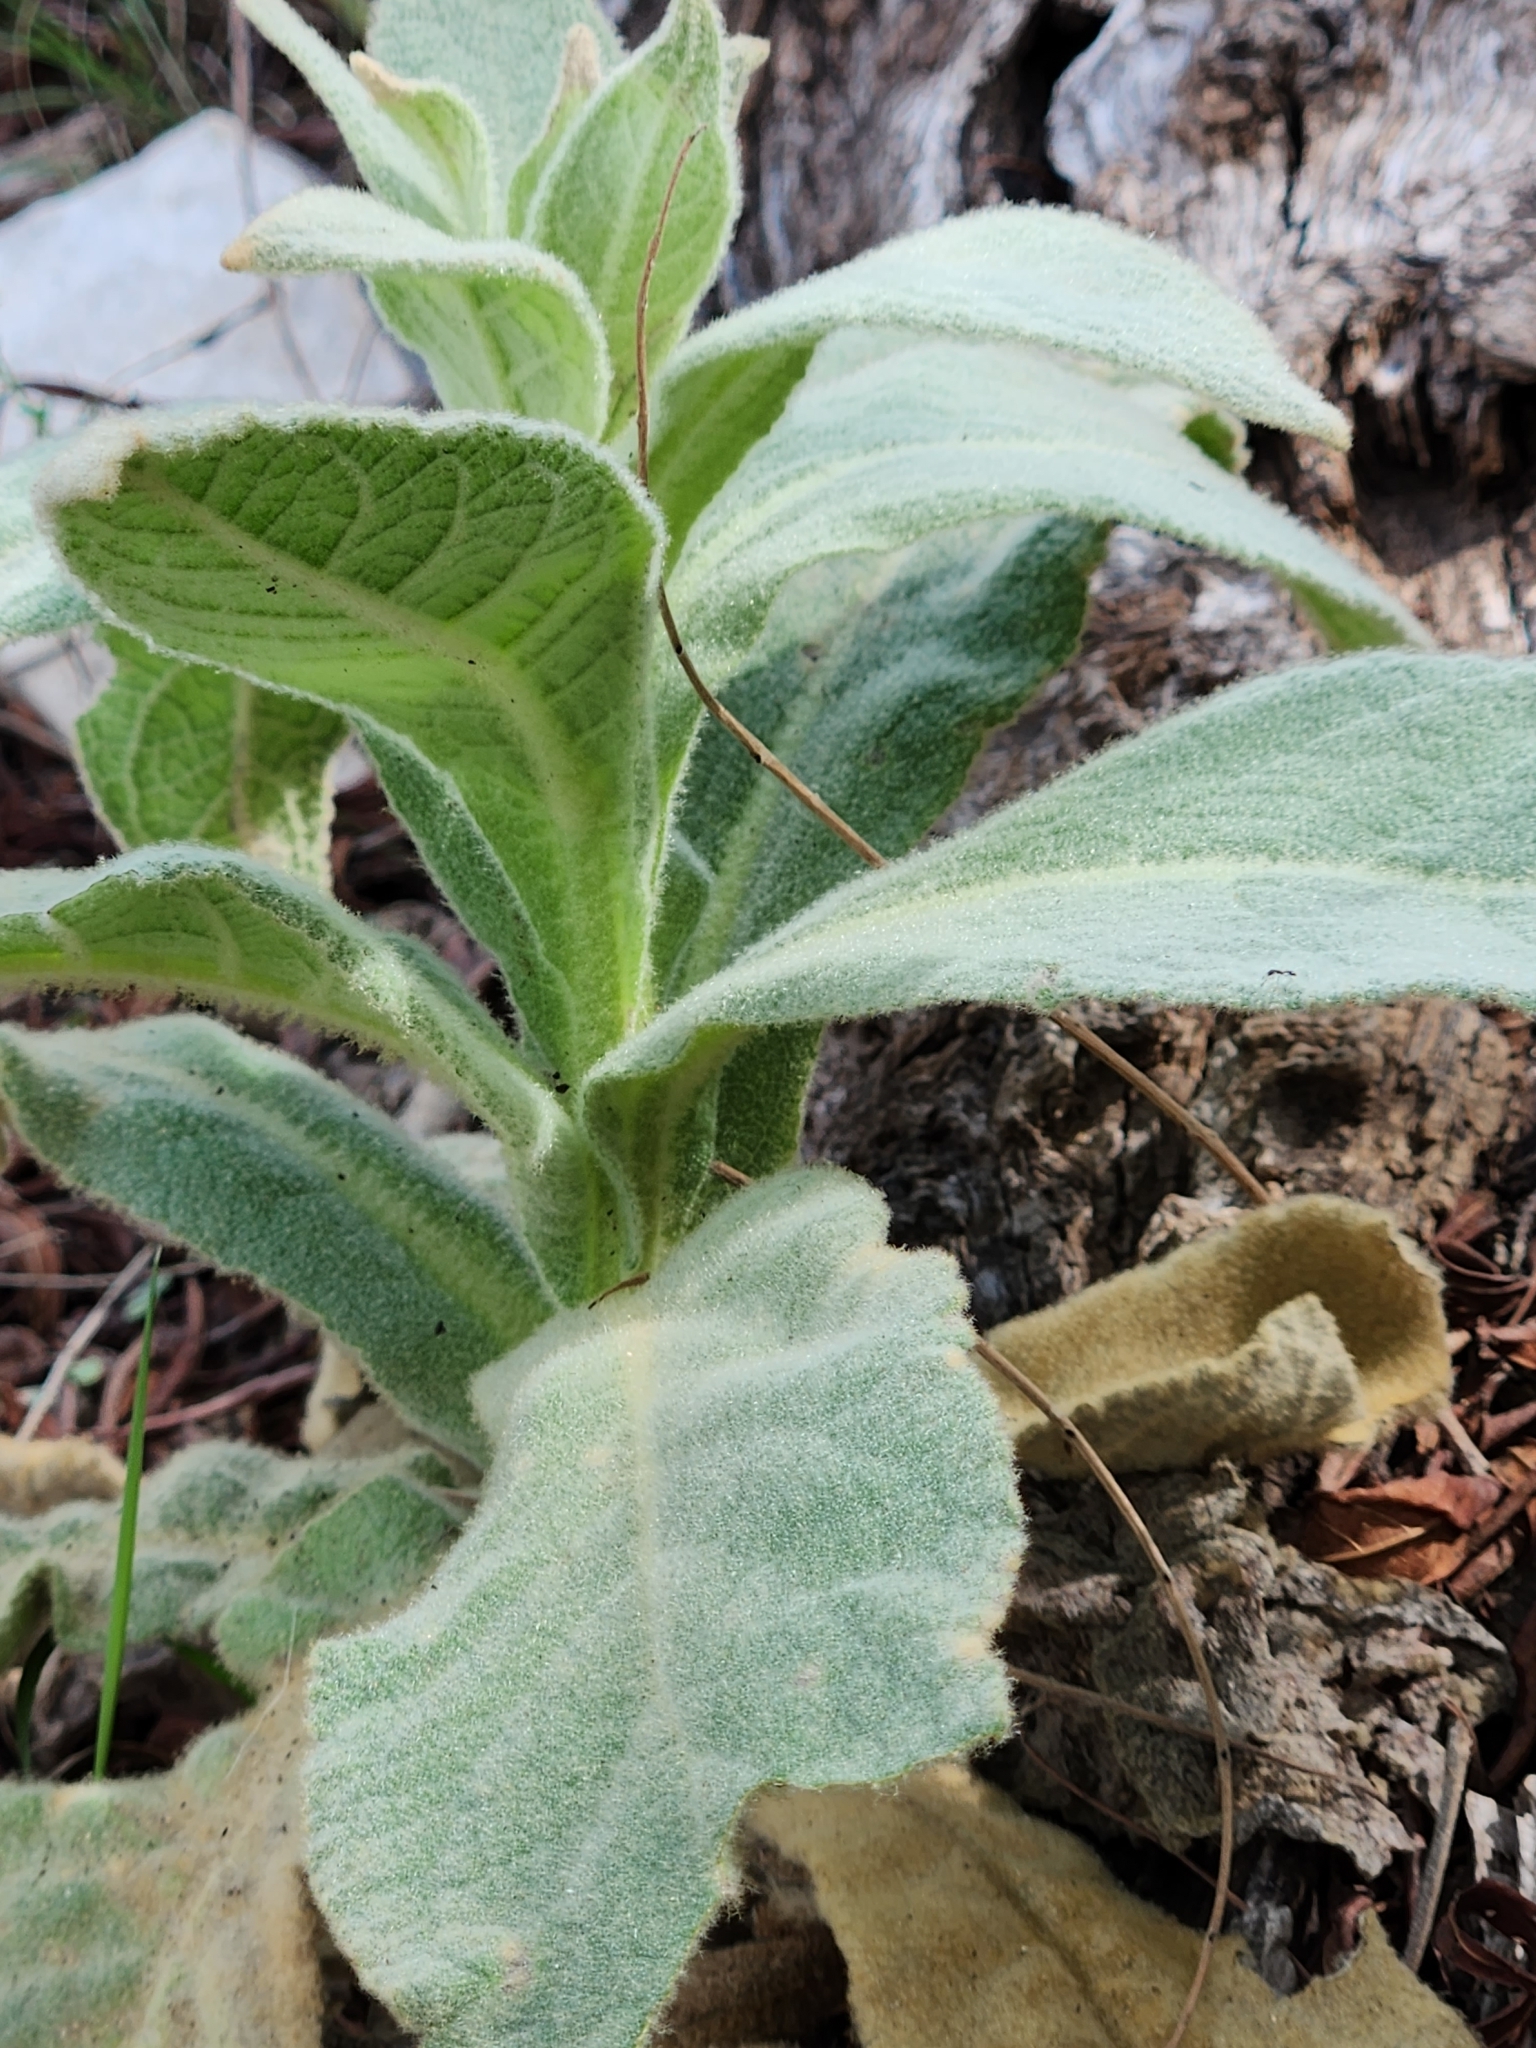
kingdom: Plantae
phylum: Tracheophyta
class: Magnoliopsida
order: Lamiales
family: Scrophulariaceae
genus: Verbascum
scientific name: Verbascum thapsus
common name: Common mullein
